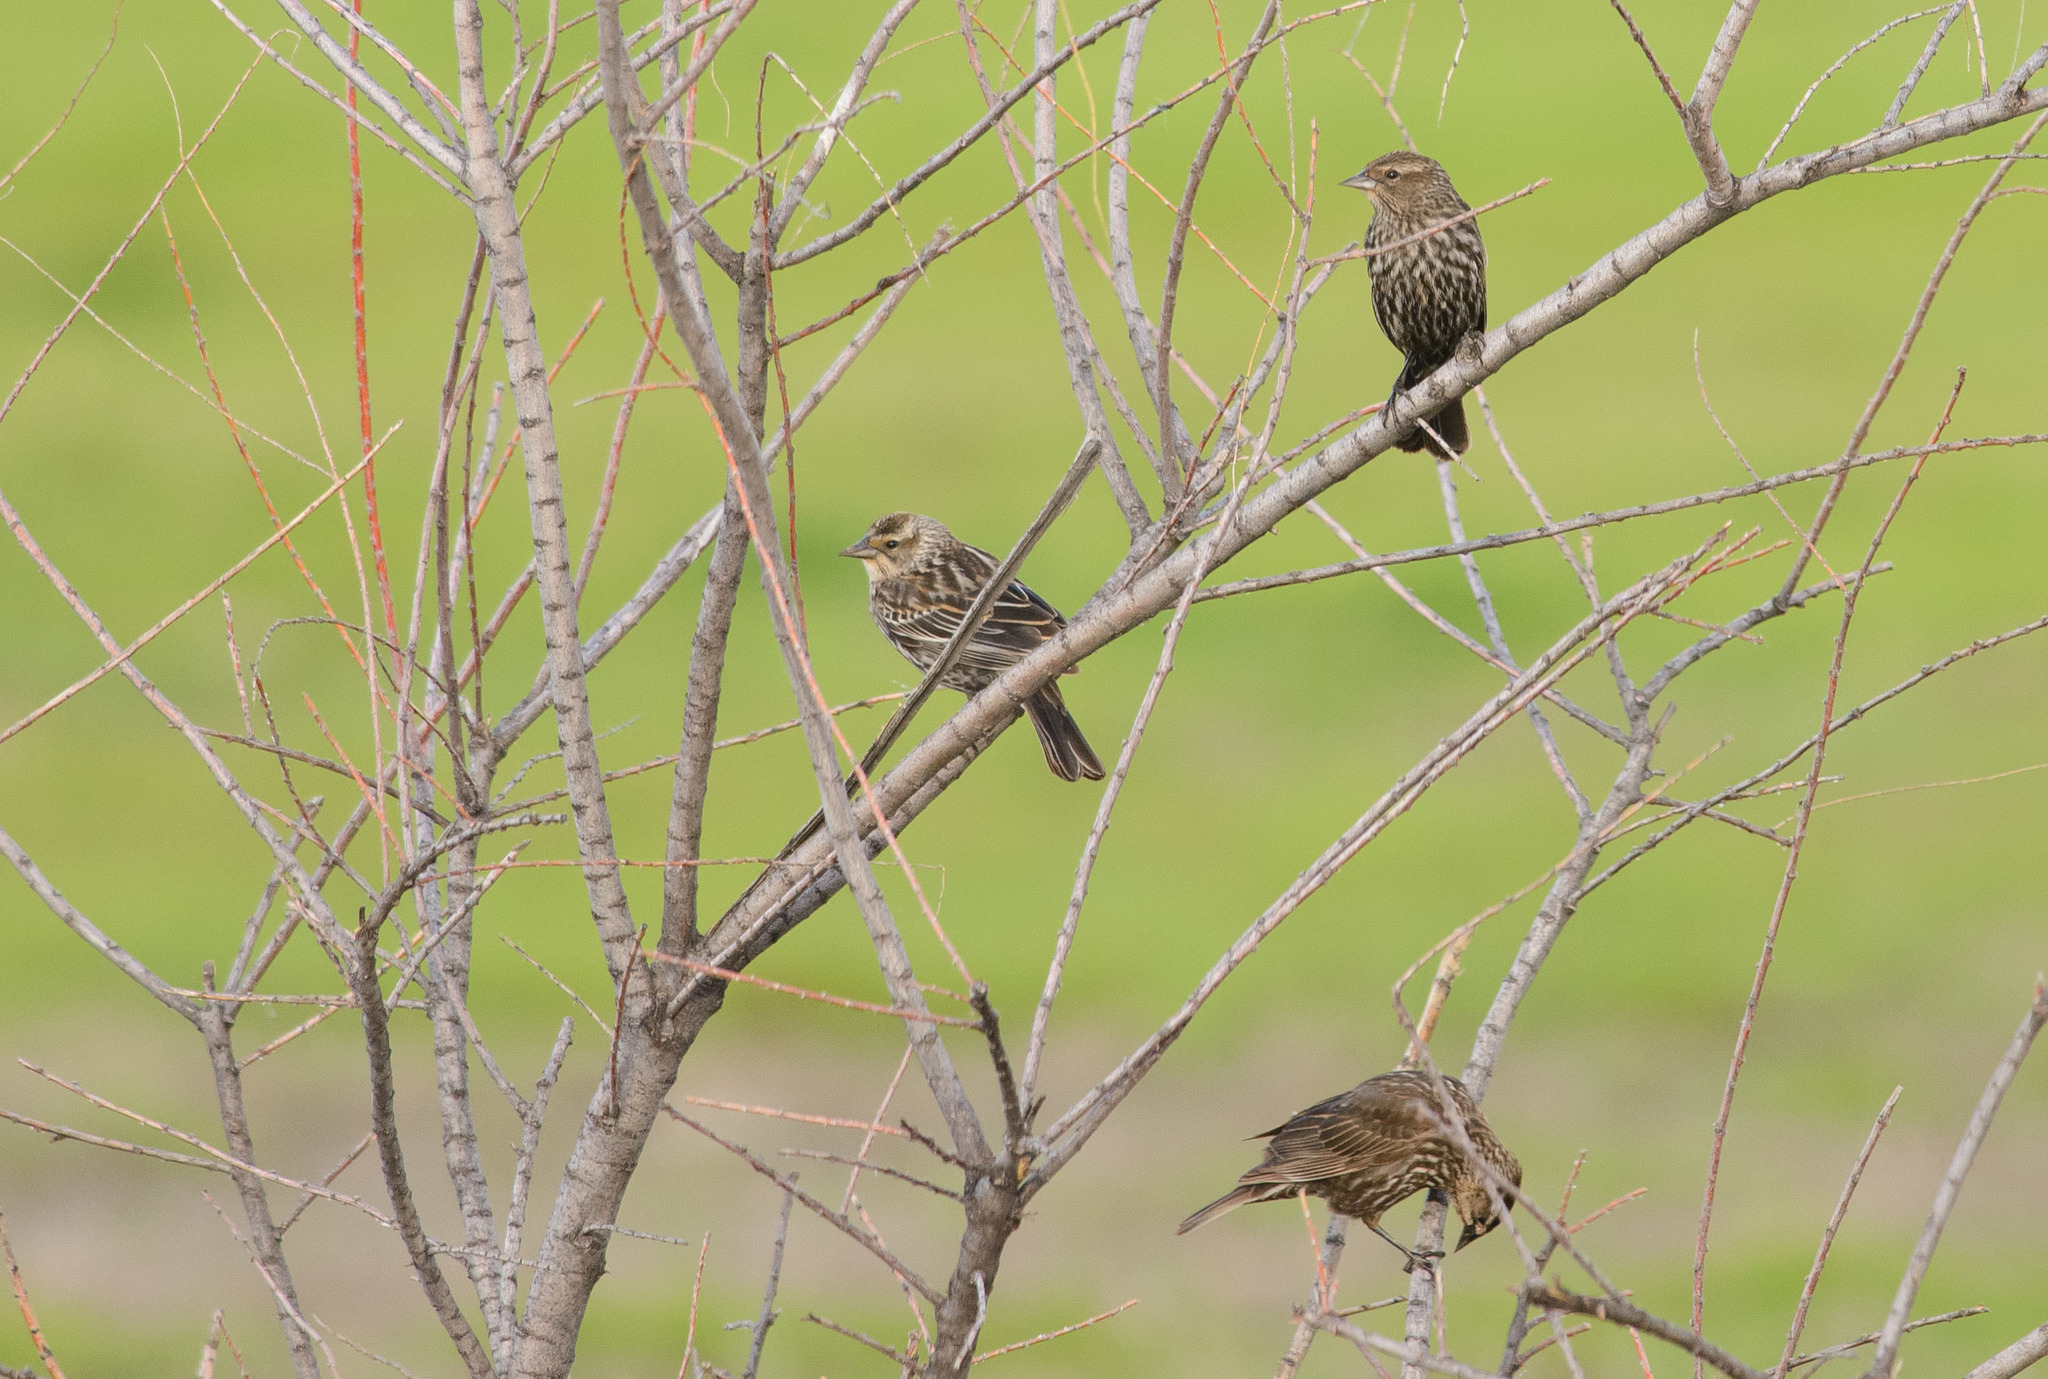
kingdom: Animalia
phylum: Chordata
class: Aves
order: Passeriformes
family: Icteridae
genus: Agelaius
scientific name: Agelaius phoeniceus
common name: Red-winged blackbird
